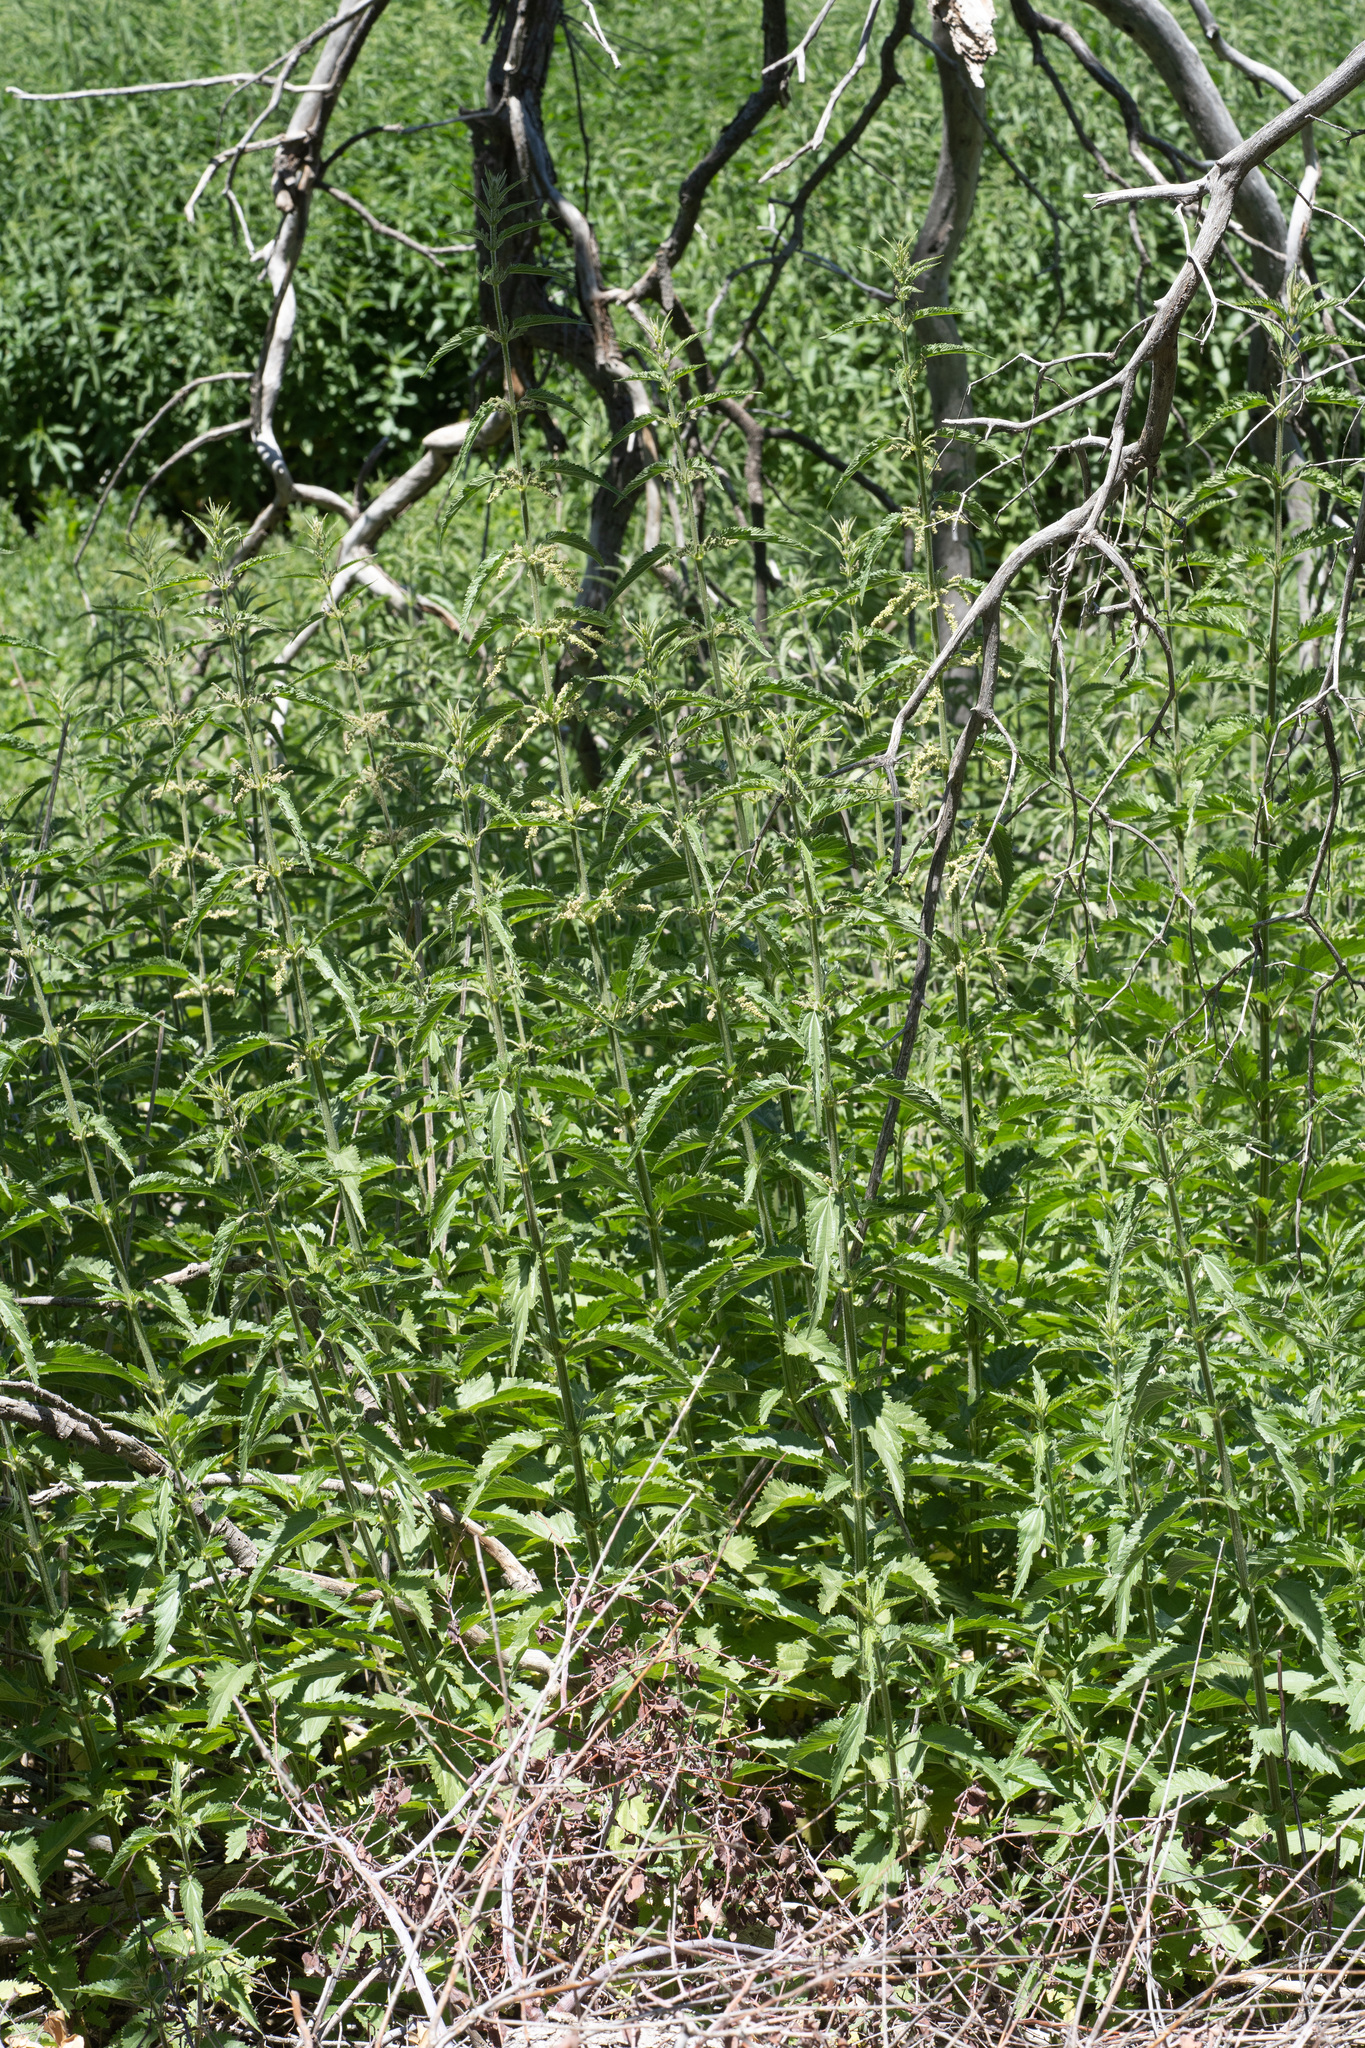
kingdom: Plantae
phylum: Tracheophyta
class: Magnoliopsida
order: Rosales
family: Urticaceae
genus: Urtica
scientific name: Urtica dioica
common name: Common nettle
